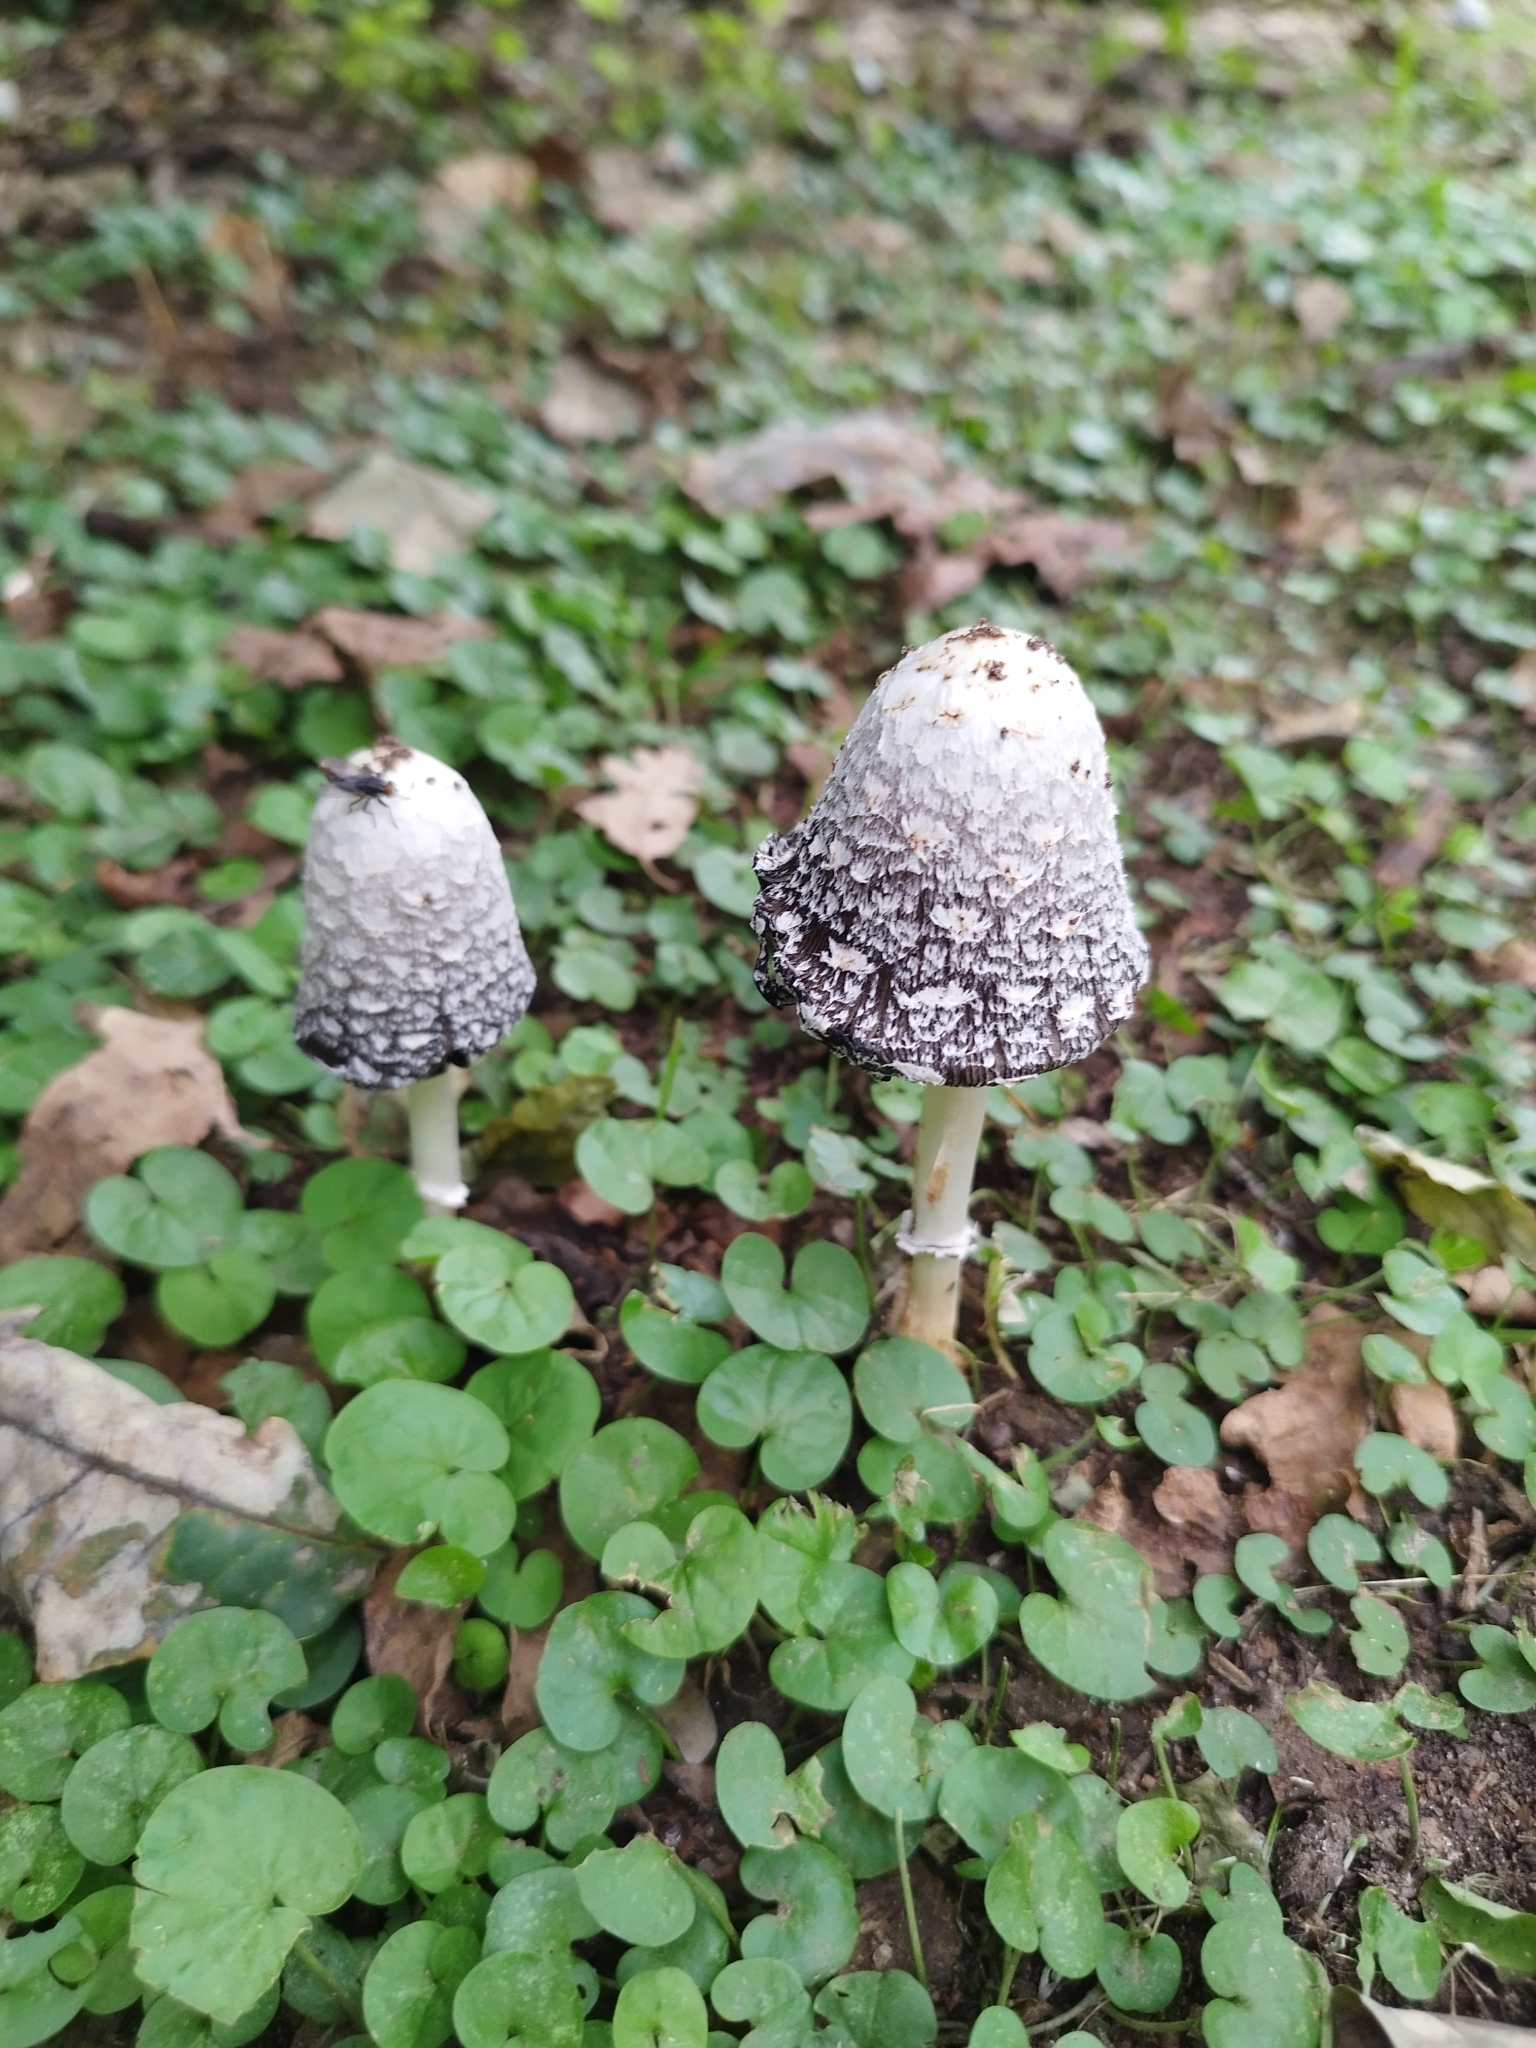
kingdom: Fungi
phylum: Basidiomycota
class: Agaricomycetes
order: Agaricales
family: Agaricaceae
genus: Coprinus
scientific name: Coprinus comatus
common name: Lawyer's wig
